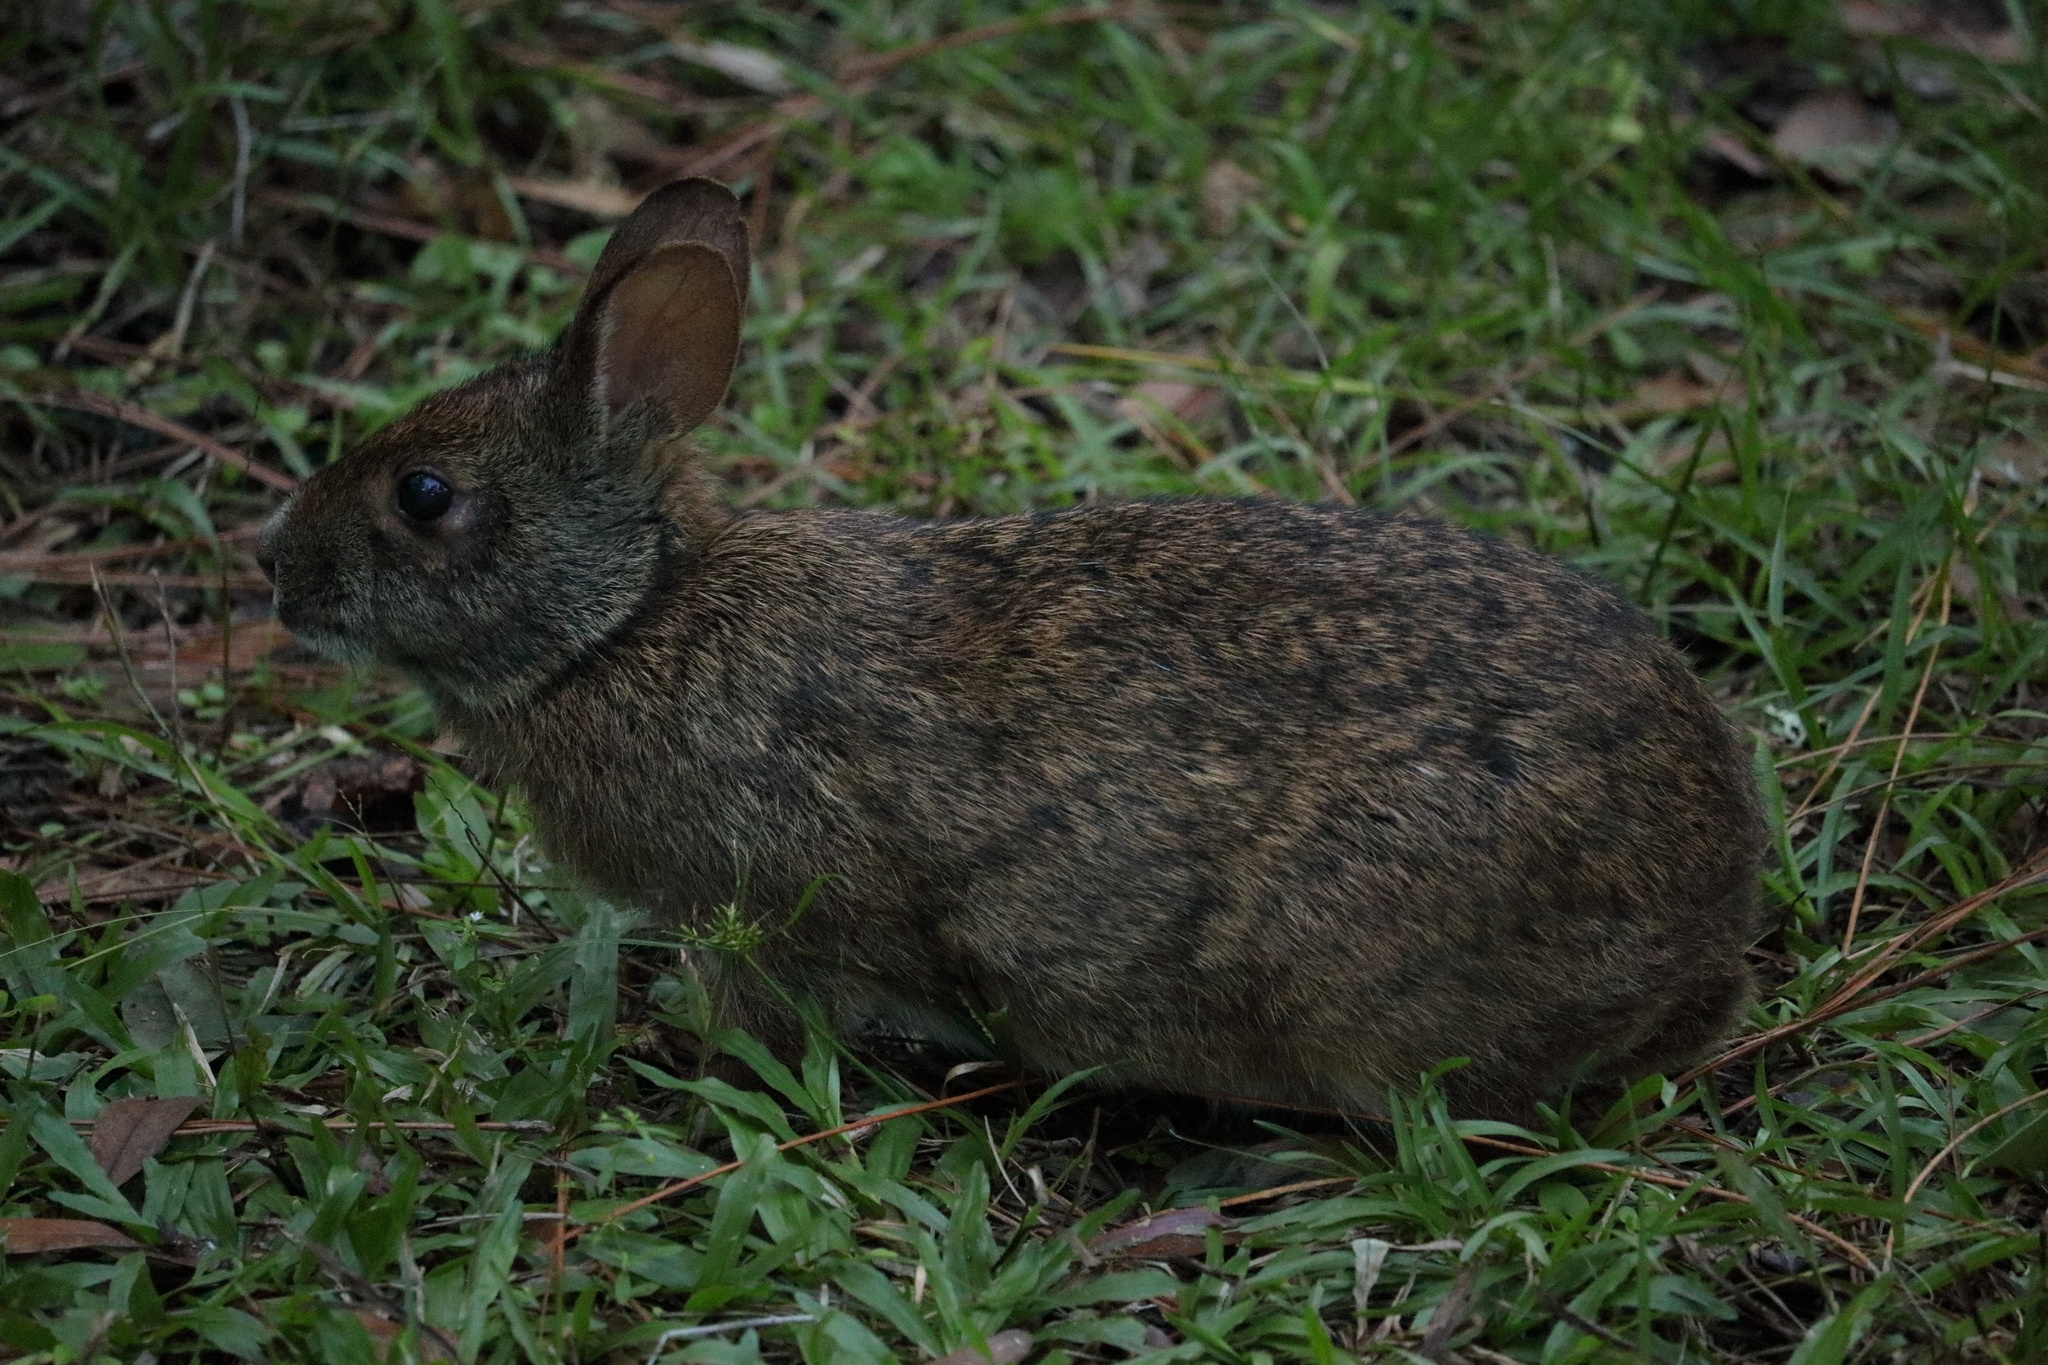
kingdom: Animalia
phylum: Chordata
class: Mammalia
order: Lagomorpha
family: Leporidae
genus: Sylvilagus
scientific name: Sylvilagus palustris
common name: Marsh rabbit
